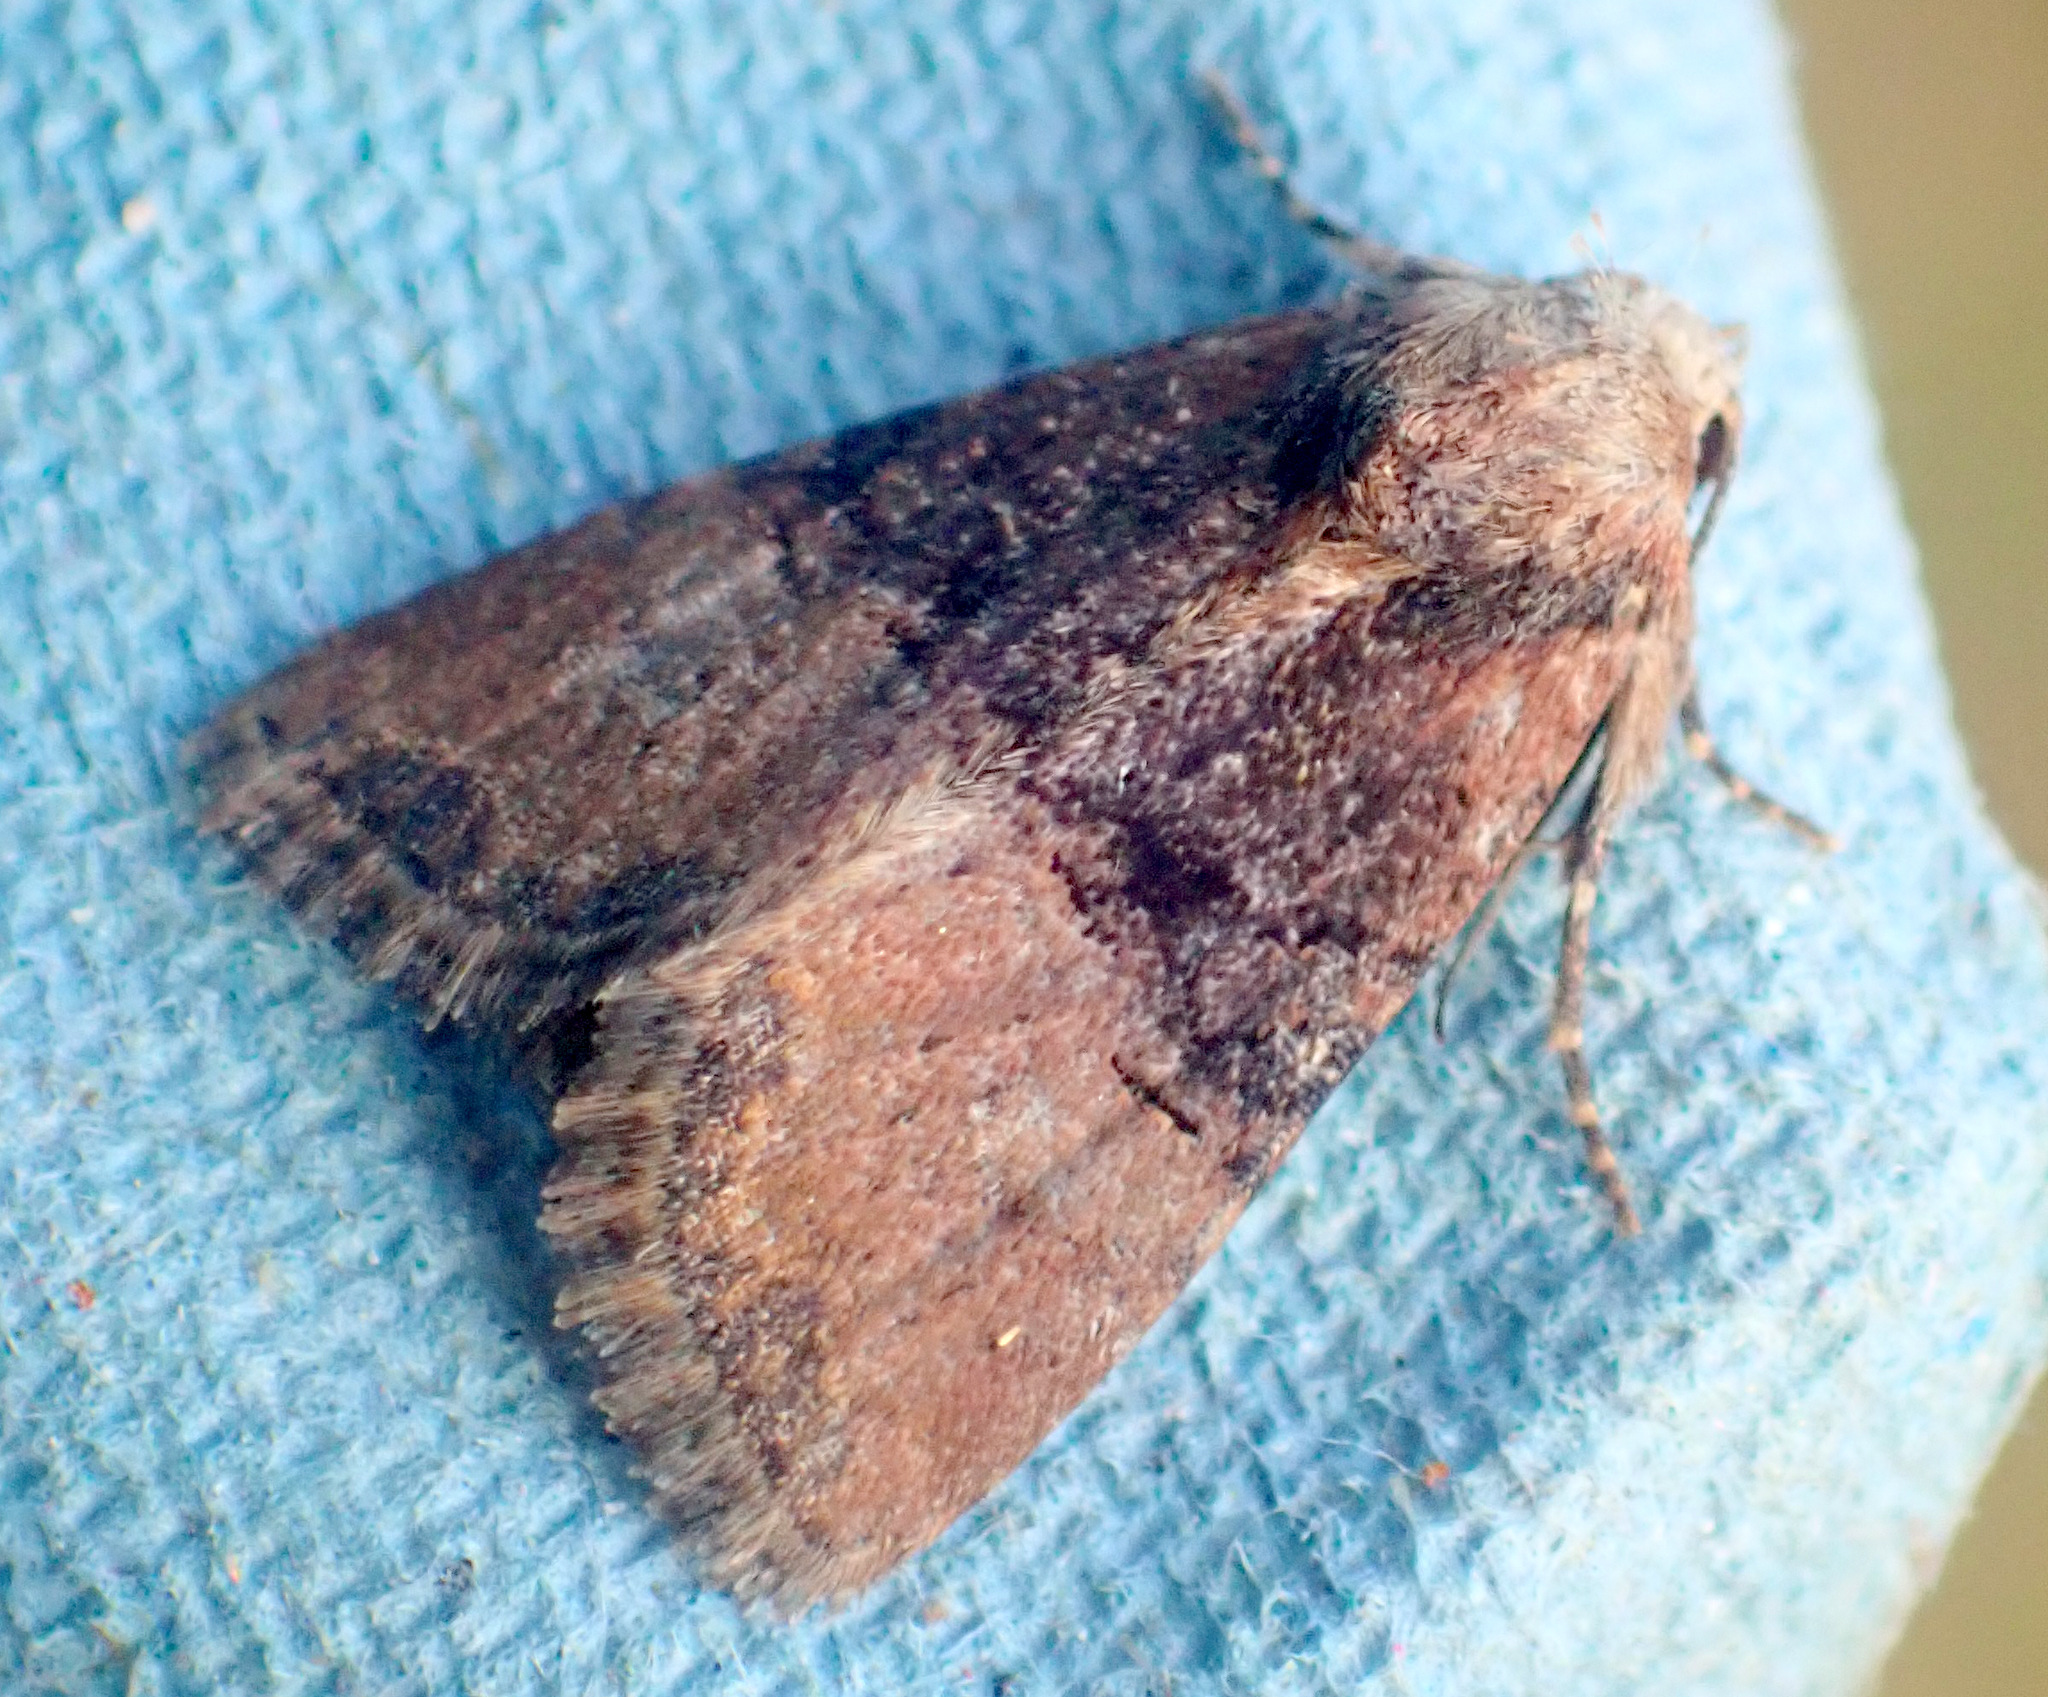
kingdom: Animalia
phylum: Arthropoda
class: Insecta
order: Lepidoptera
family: Noctuidae
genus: Mesoligia
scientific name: Mesoligia furuncula
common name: Cloaked minor
